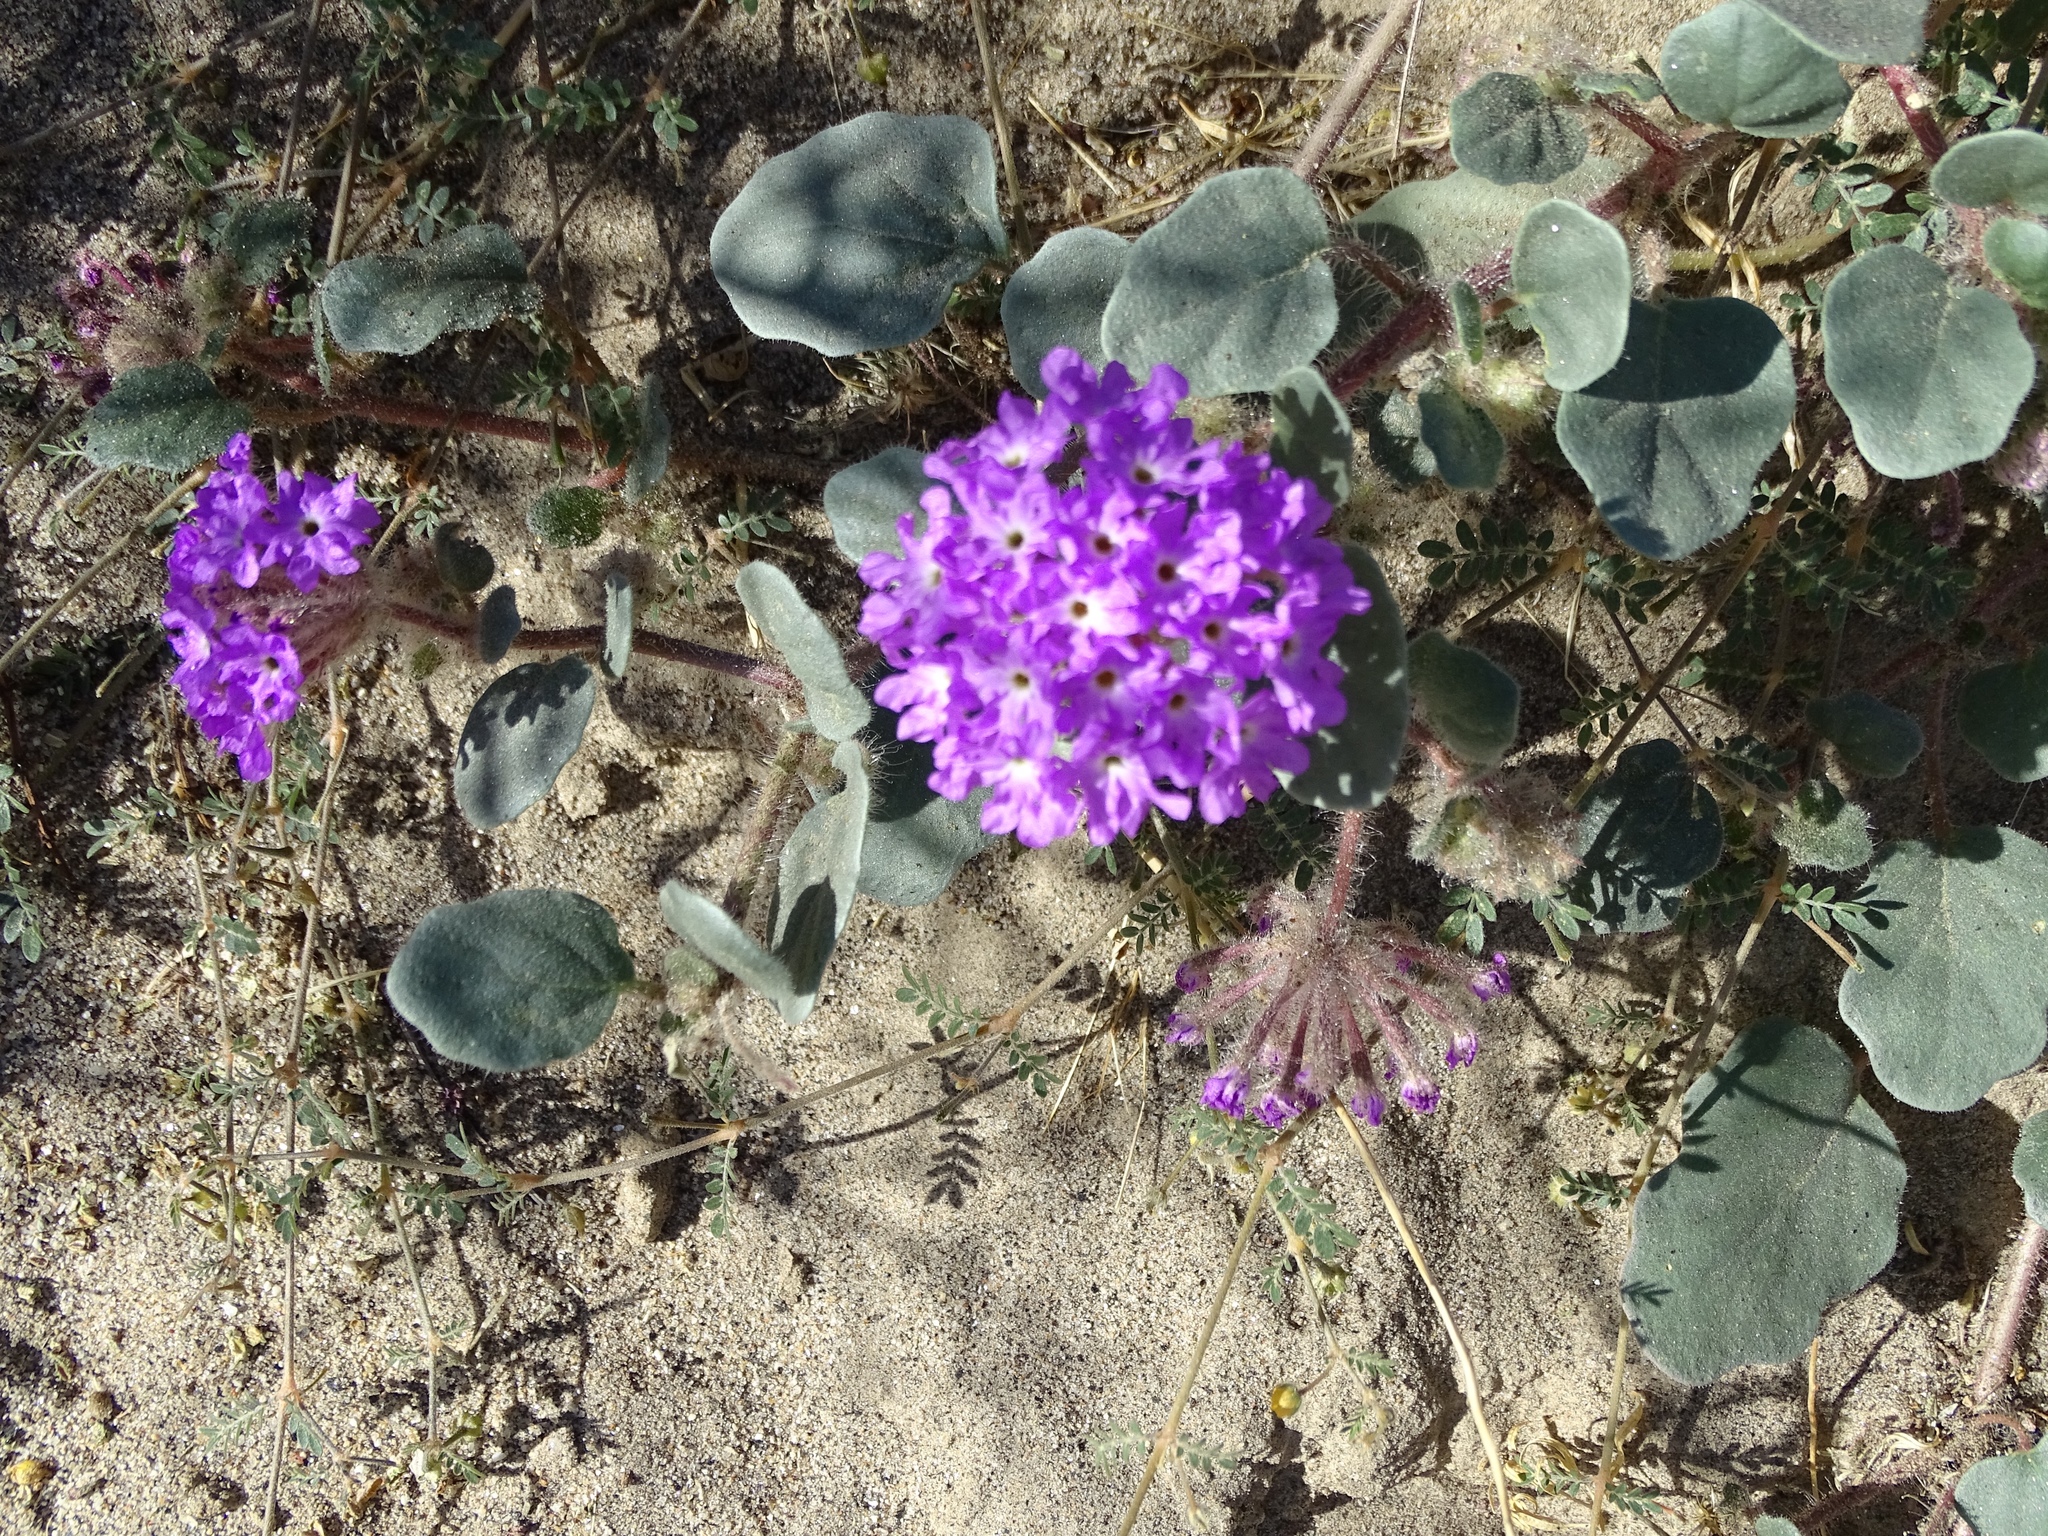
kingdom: Plantae
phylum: Tracheophyta
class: Magnoliopsida
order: Caryophyllales
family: Nyctaginaceae
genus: Abronia
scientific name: Abronia villosa
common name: Desert sand-verbena
